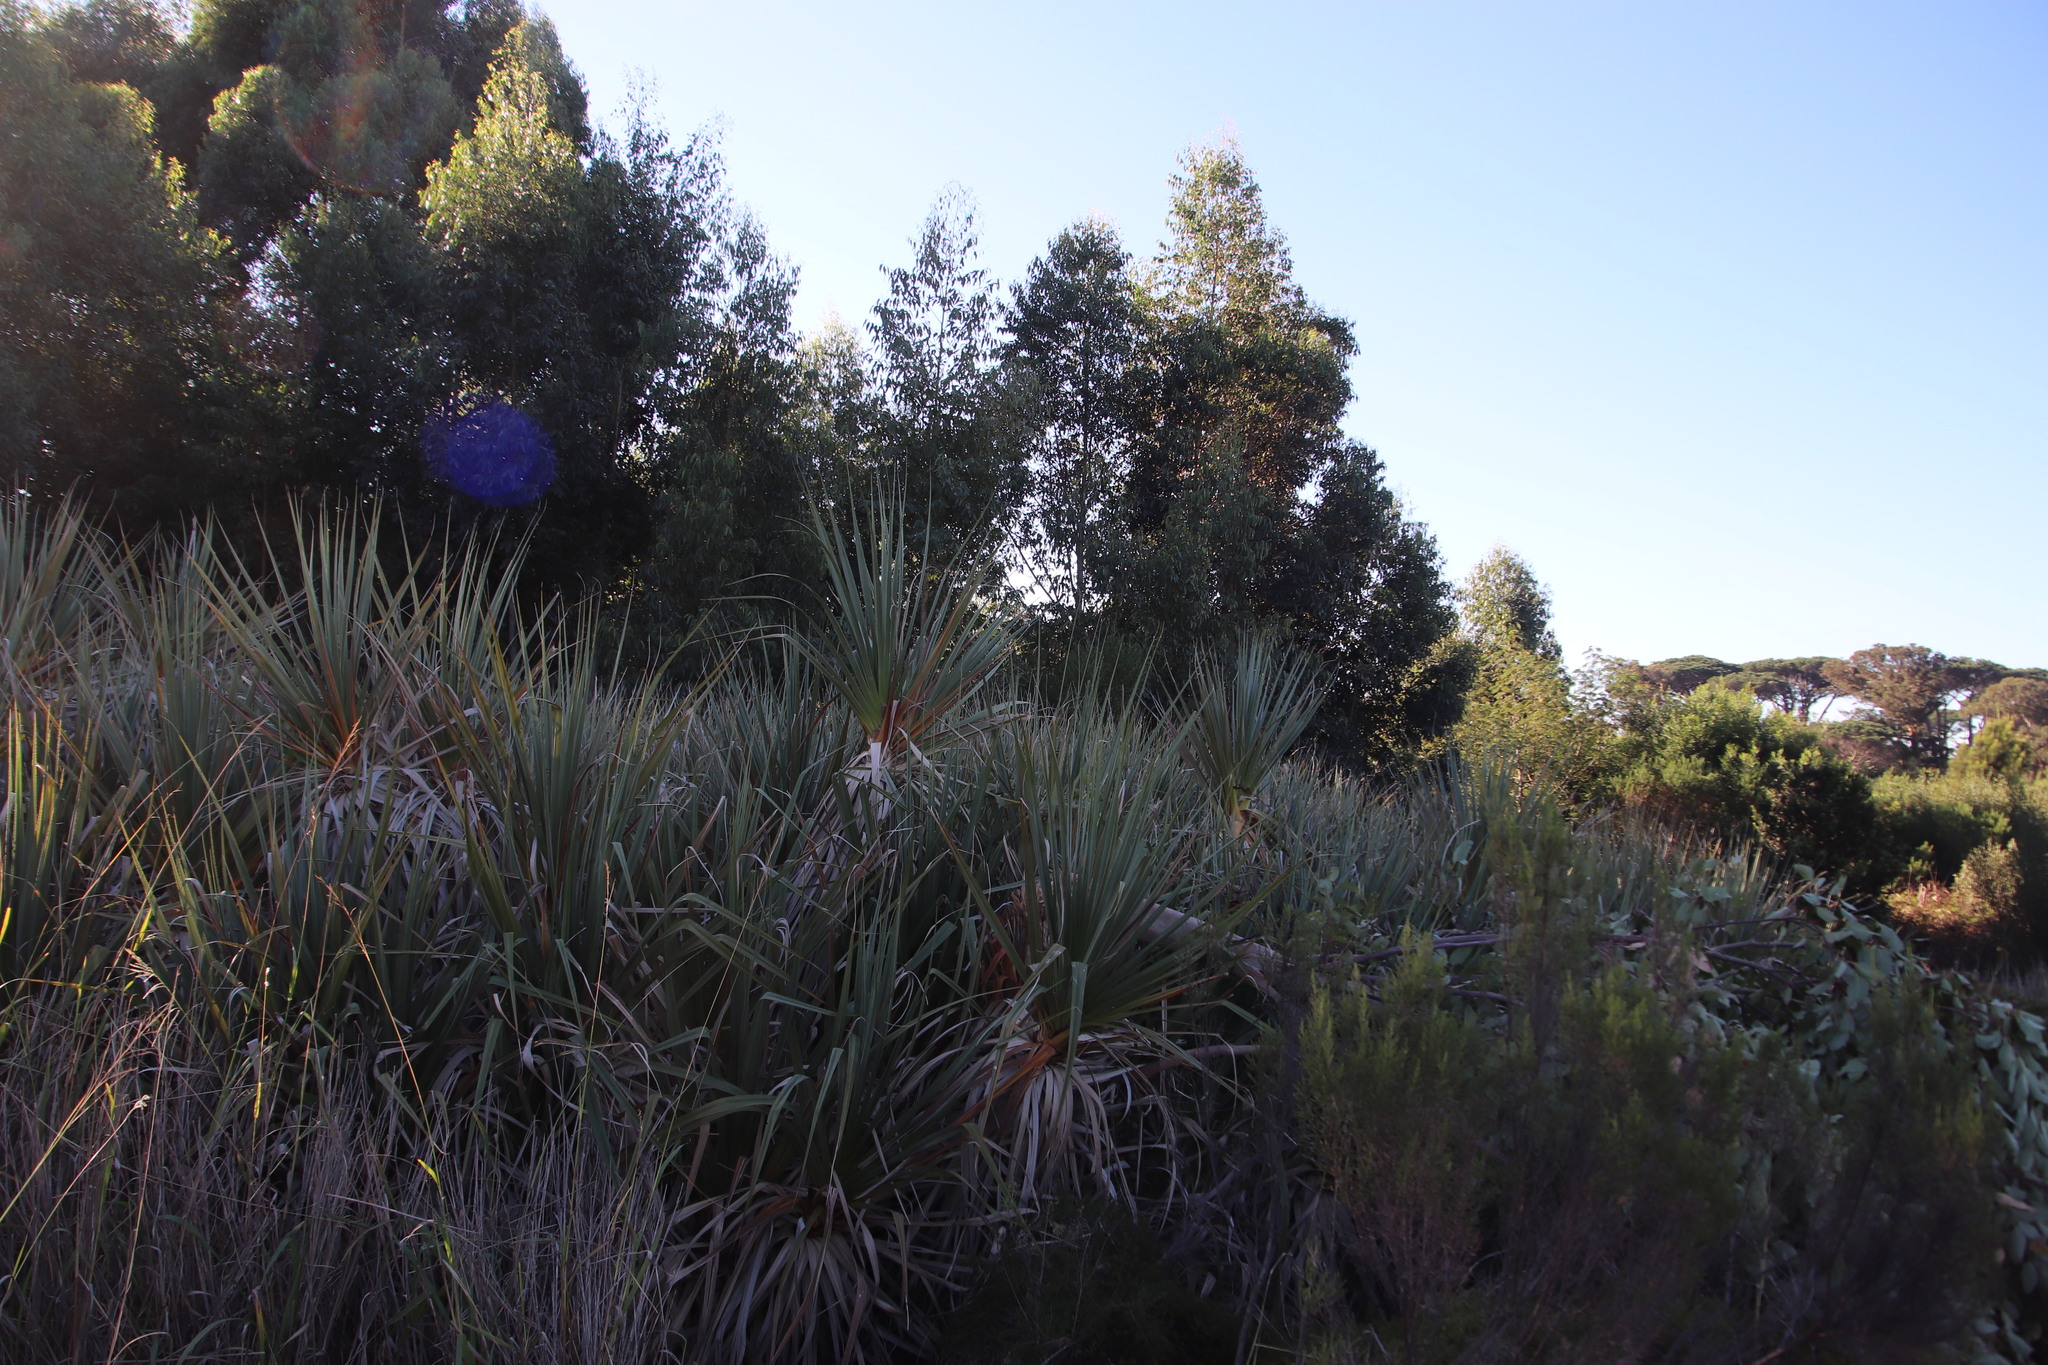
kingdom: Plantae
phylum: Tracheophyta
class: Liliopsida
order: Poales
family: Thurniaceae
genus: Prionium
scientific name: Prionium serratum
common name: Palmiet
